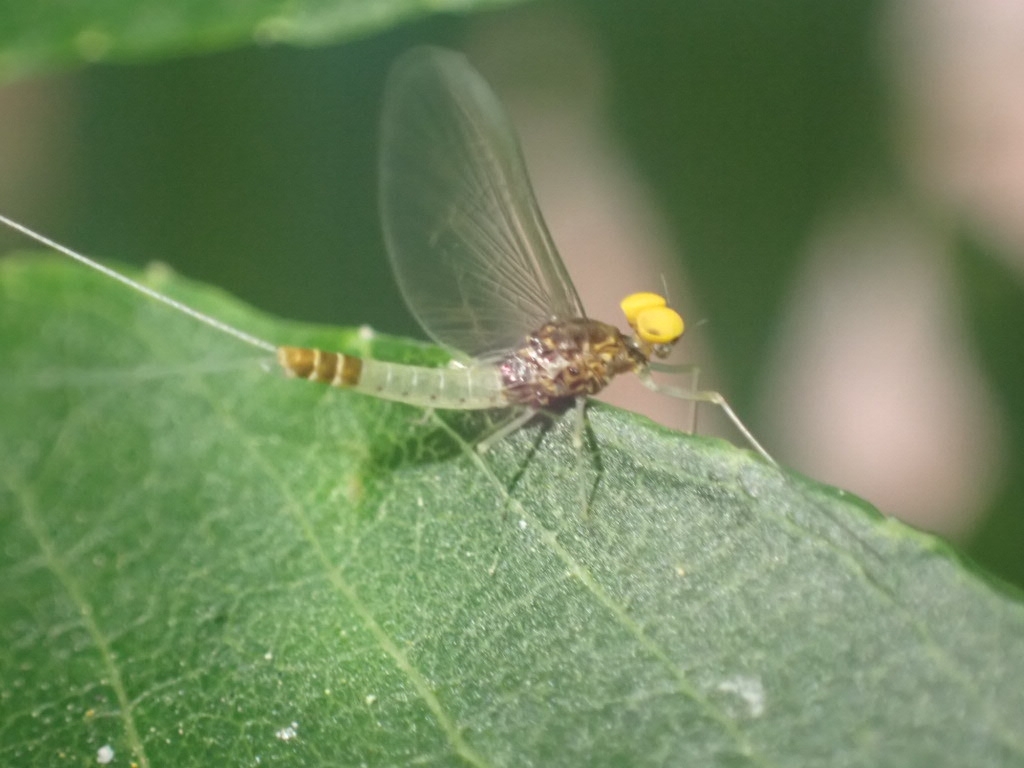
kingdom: Animalia
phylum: Arthropoda
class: Insecta
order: Ephemeroptera
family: Baetidae
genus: Baetis
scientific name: Baetis fuscatus
